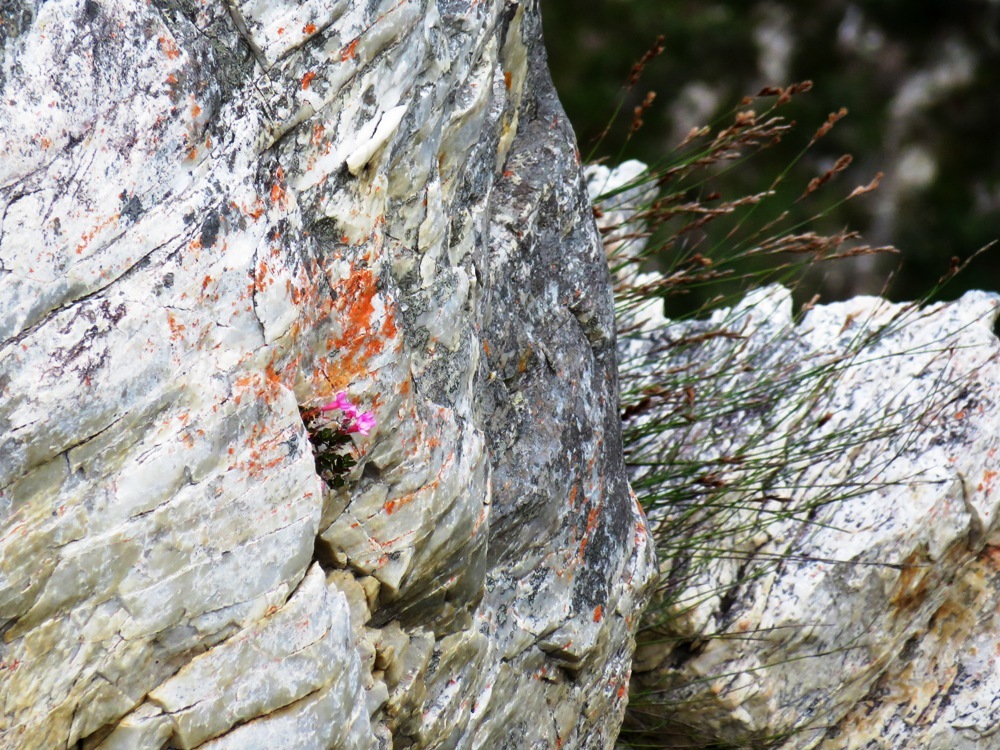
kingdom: Plantae
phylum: Tracheophyta
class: Magnoliopsida
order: Myrtales
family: Penaeaceae
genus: Brachysiphon
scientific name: Brachysiphon rupestris
